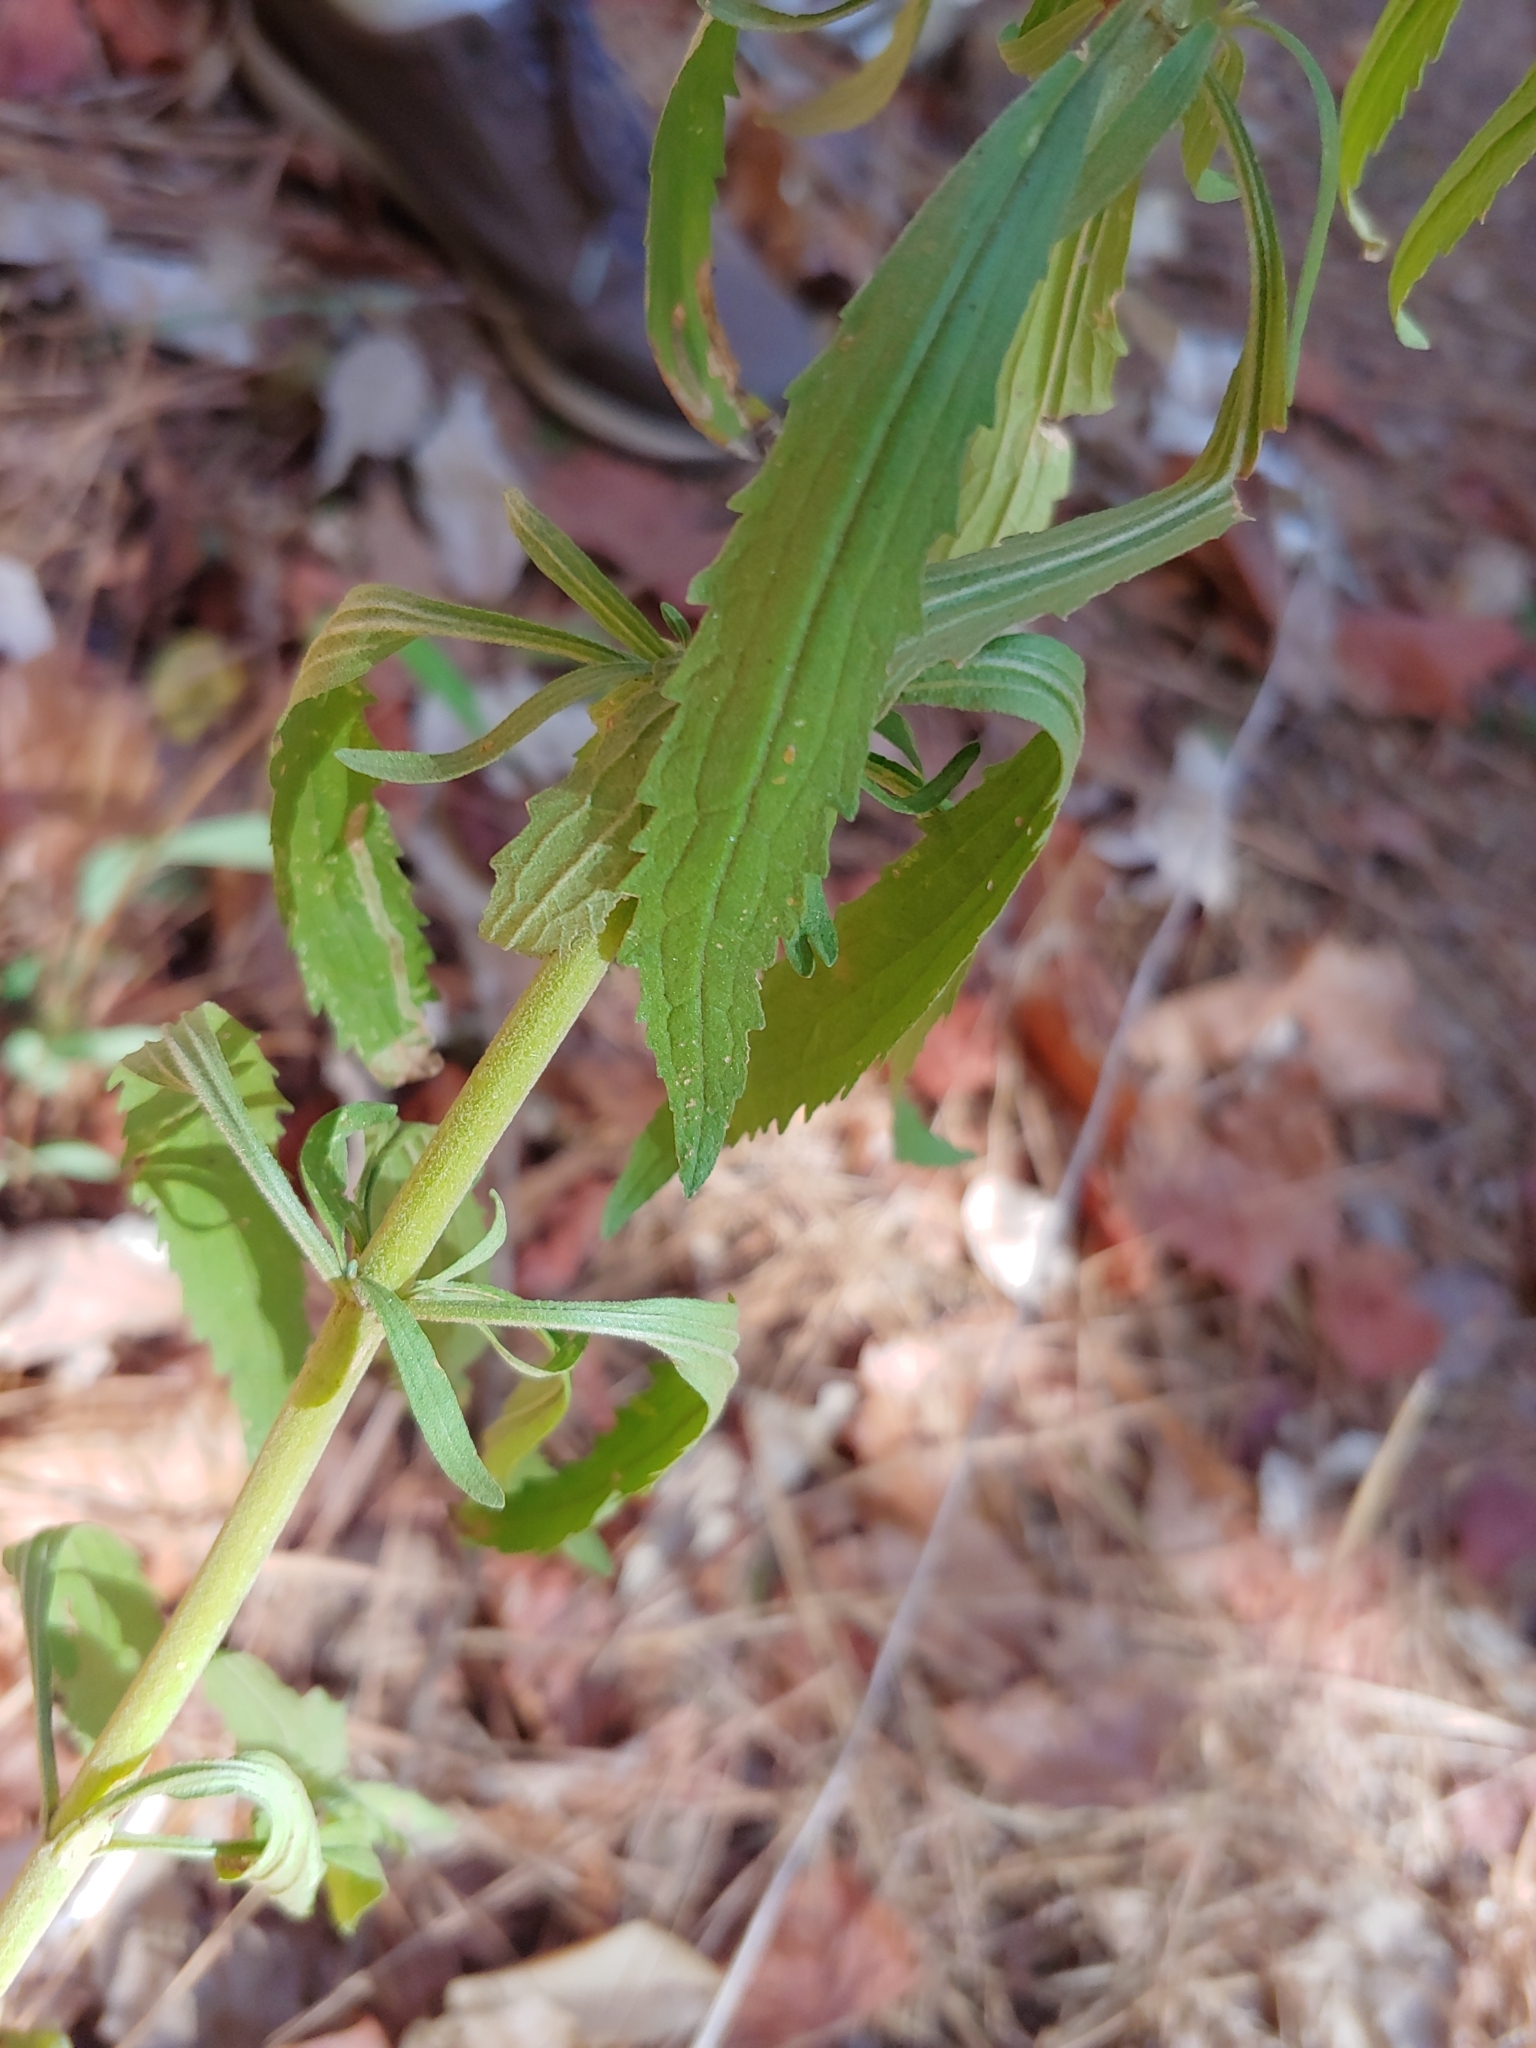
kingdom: Plantae
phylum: Tracheophyta
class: Magnoliopsida
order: Asterales
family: Asteraceae
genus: Eupatorium
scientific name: Eupatorium torreyanum
